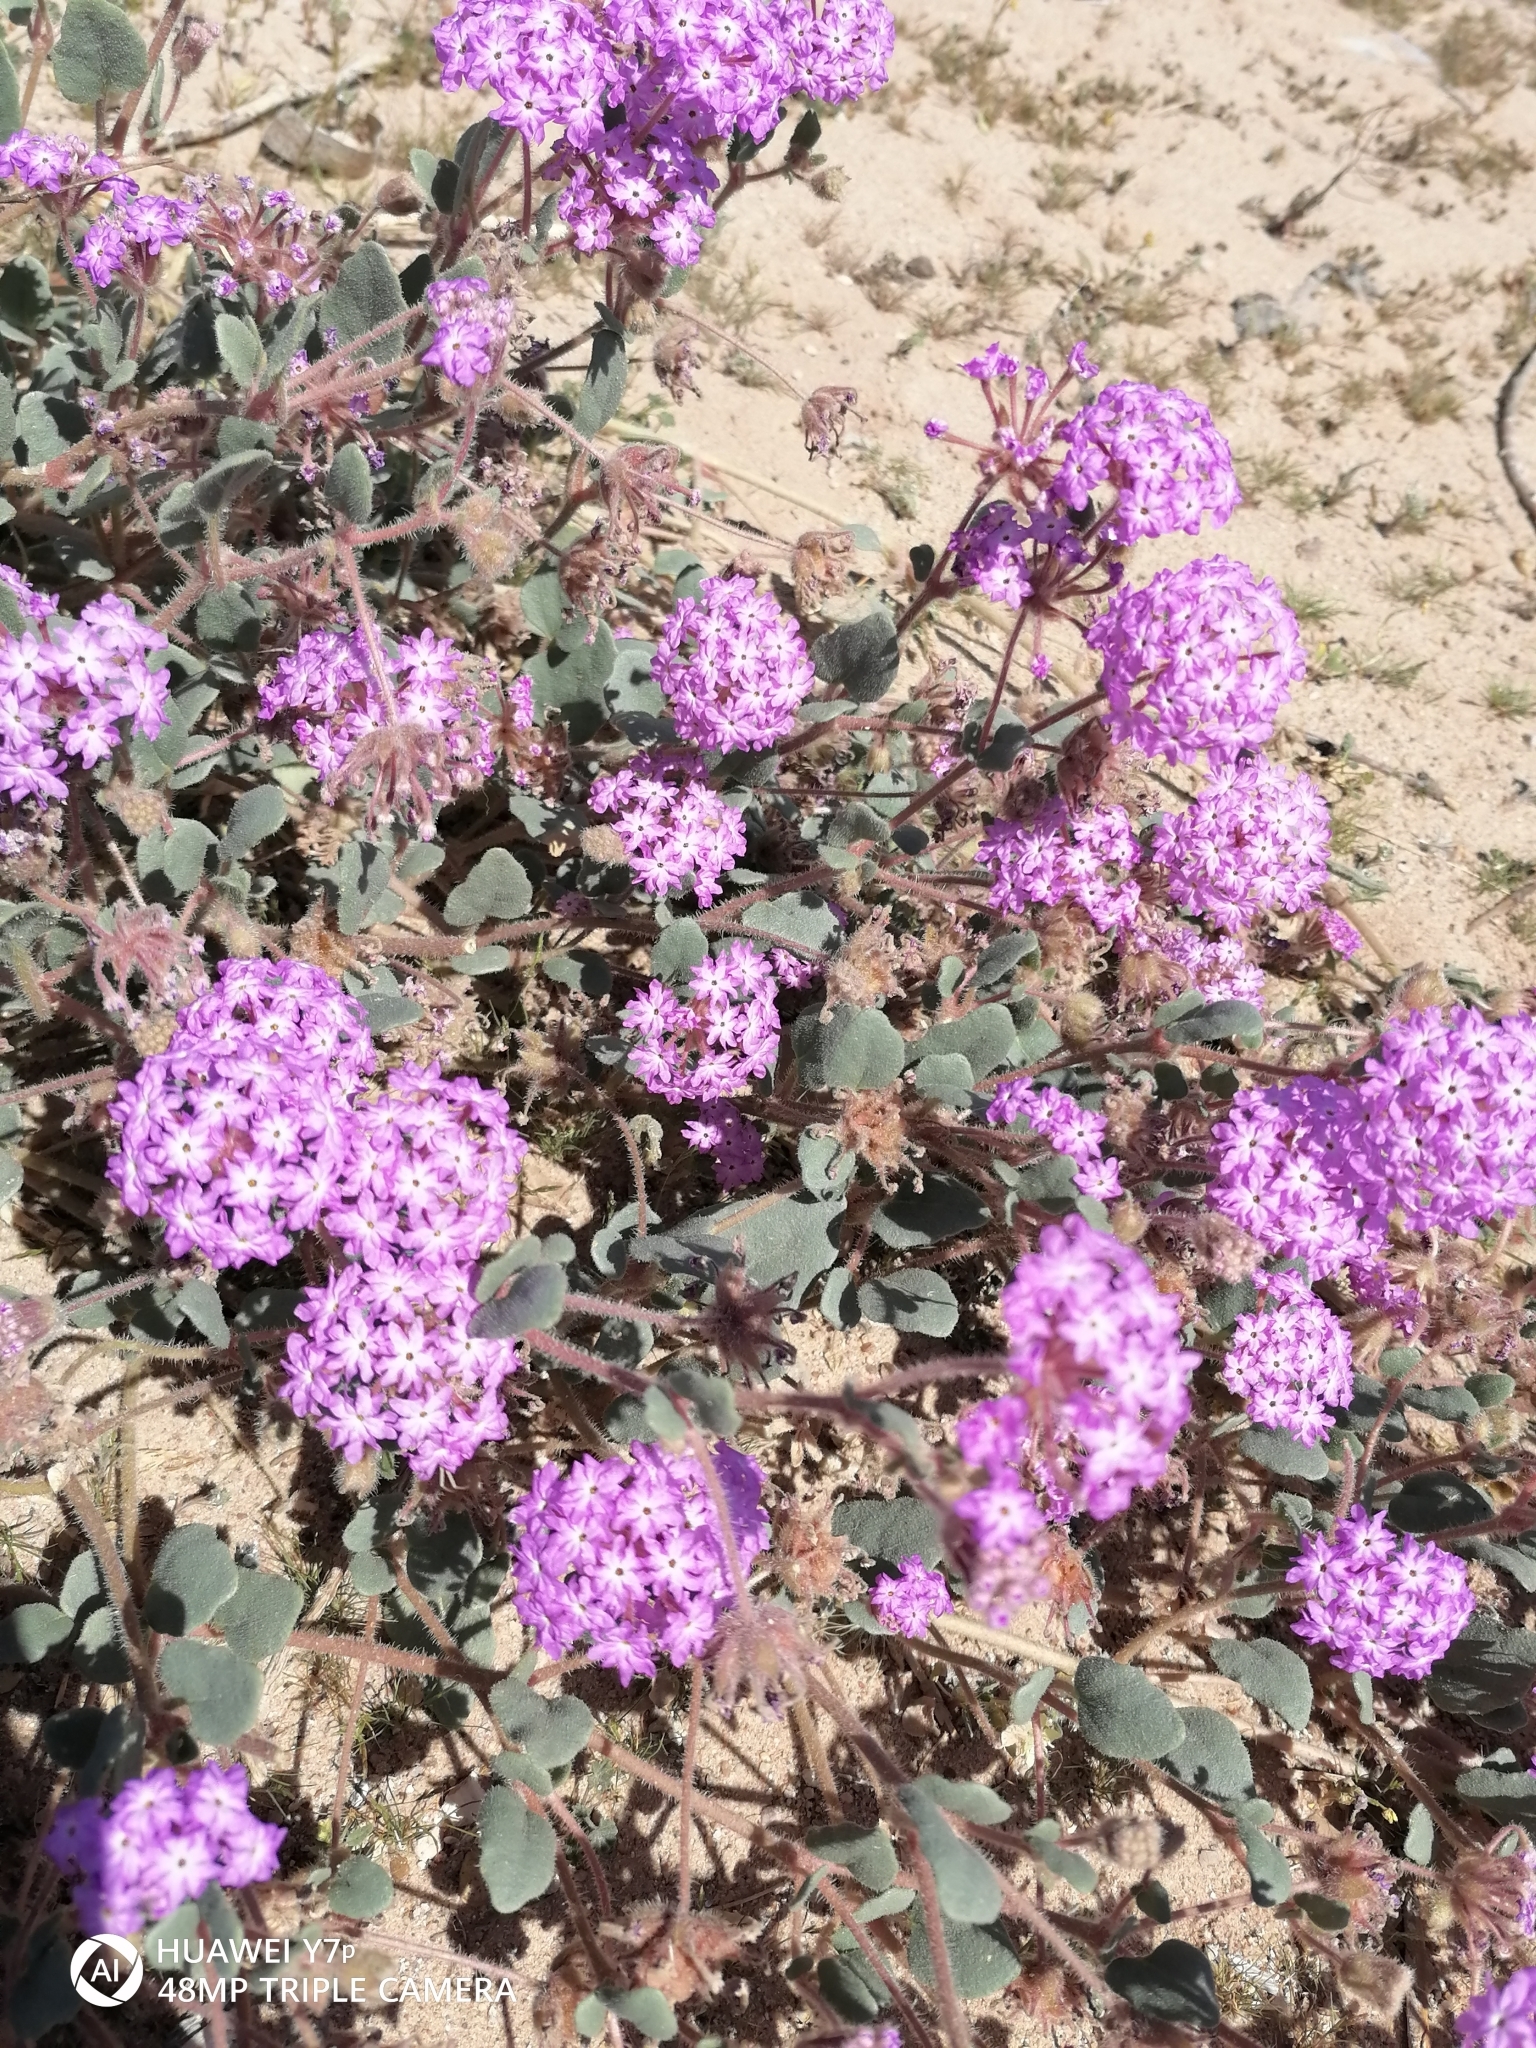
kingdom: Plantae
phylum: Tracheophyta
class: Magnoliopsida
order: Caryophyllales
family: Nyctaginaceae
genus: Abronia
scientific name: Abronia villosa
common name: Desert sand-verbena
